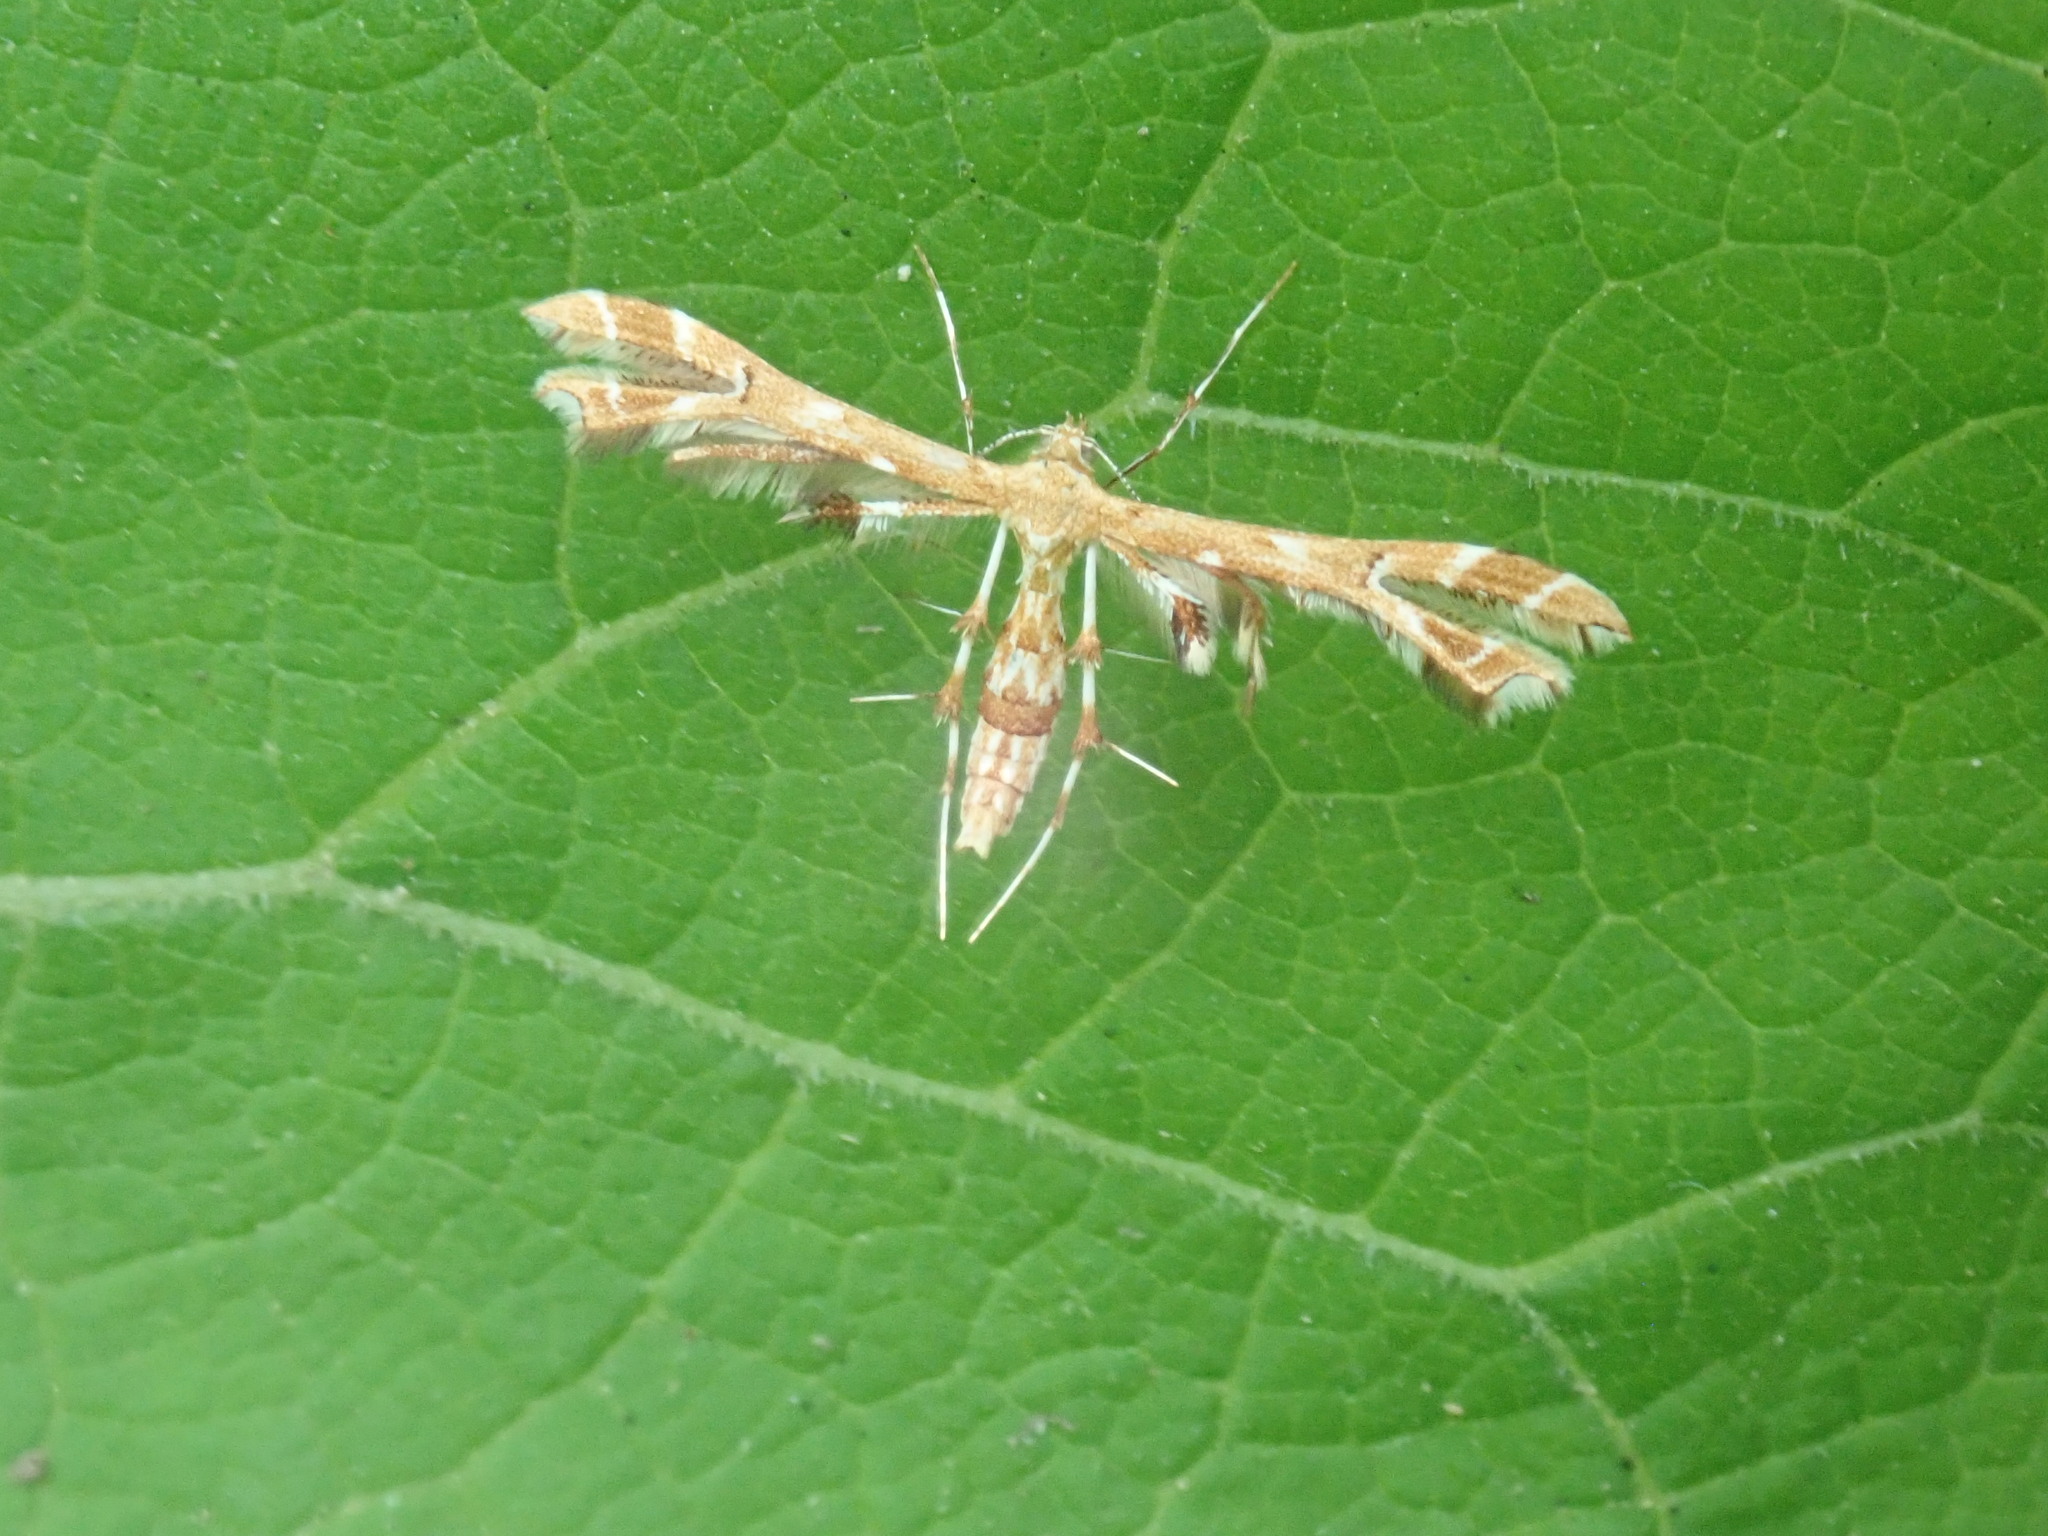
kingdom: Animalia
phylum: Arthropoda
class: Insecta
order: Lepidoptera
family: Pterophoridae
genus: Geina
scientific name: Geina
